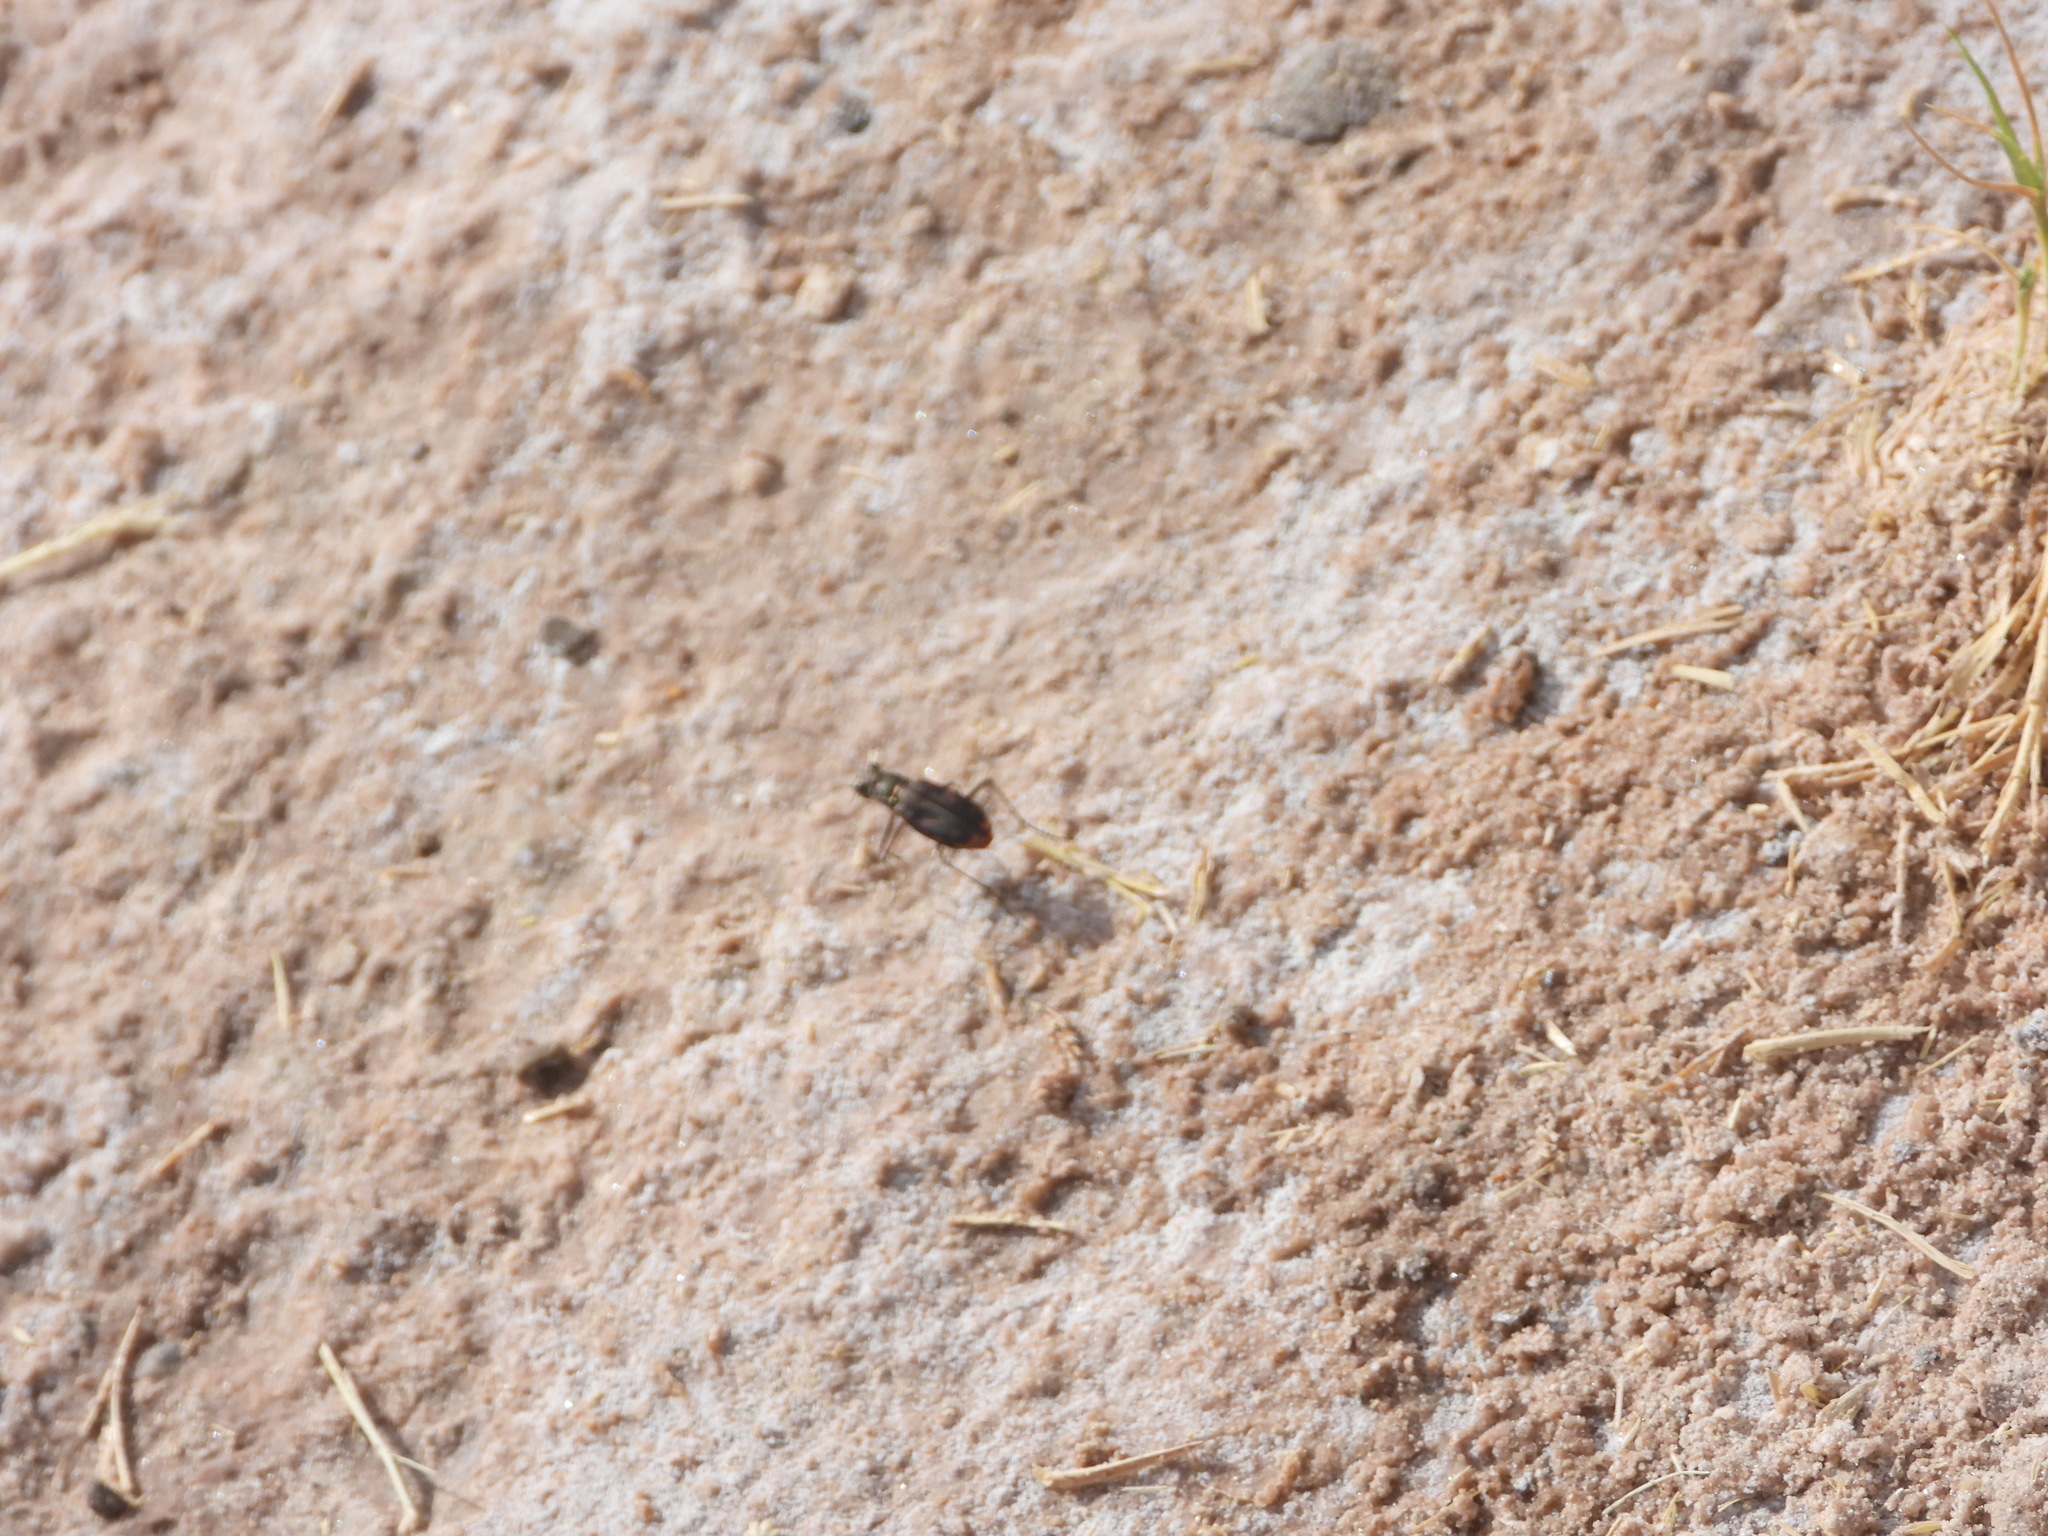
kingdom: Animalia
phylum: Arthropoda
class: Insecta
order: Coleoptera
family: Carabidae
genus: Cicindela
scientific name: Cicindela hemorrhagica
